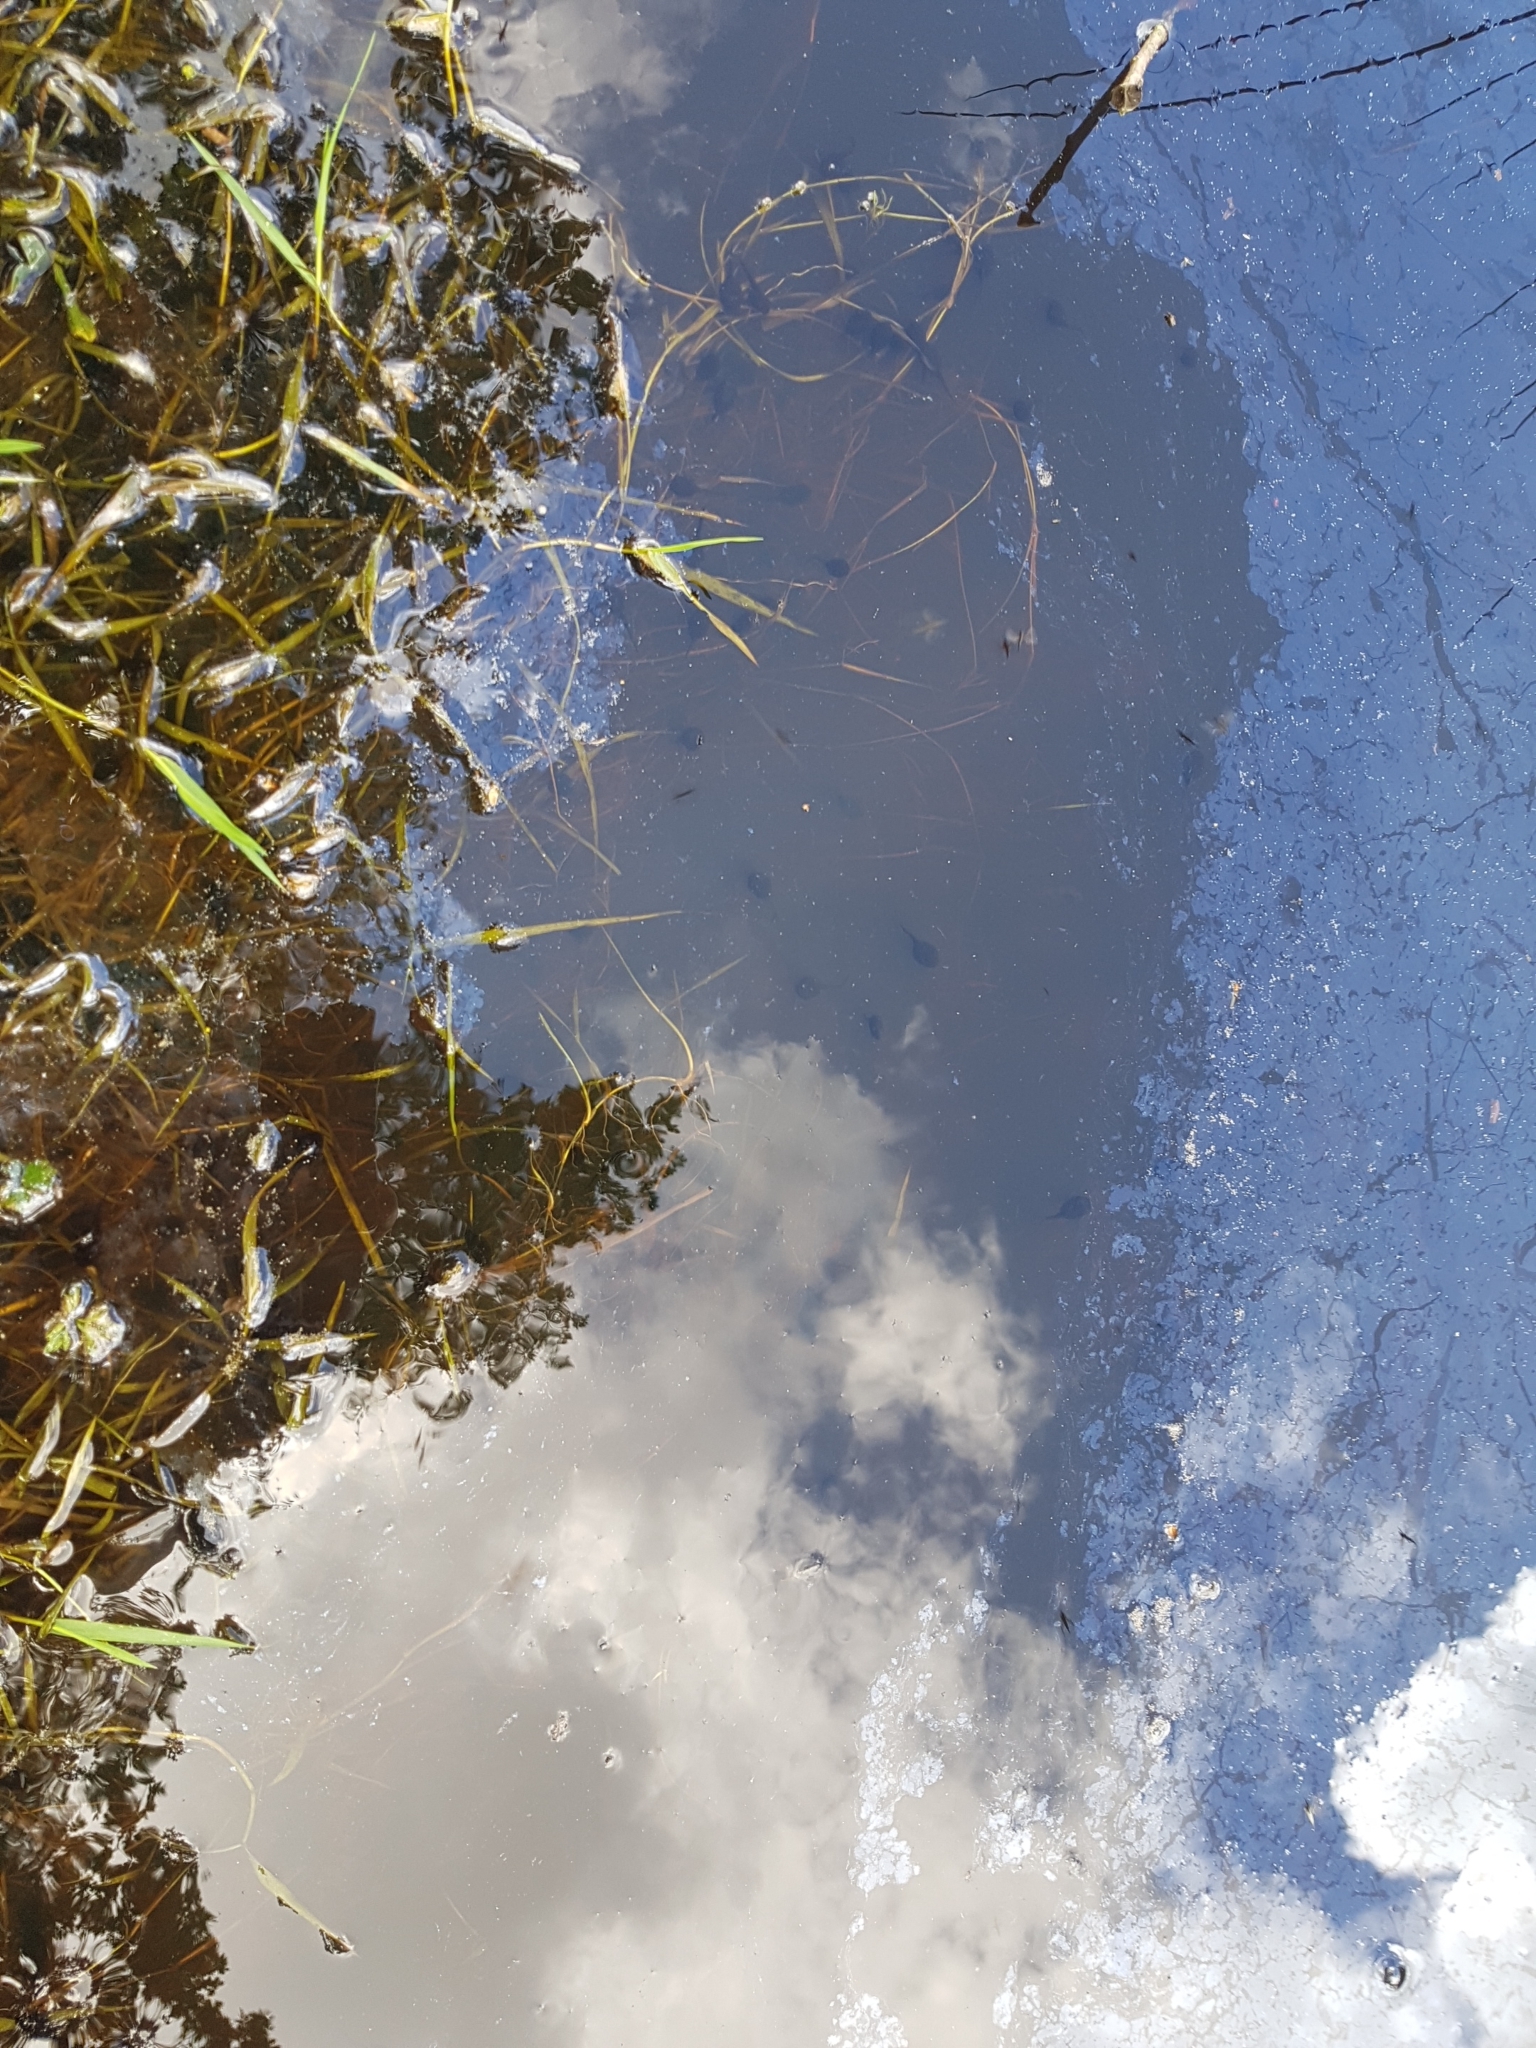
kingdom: Animalia
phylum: Chordata
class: Amphibia
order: Anura
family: Bufonidae
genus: Bufo
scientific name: Bufo bufo
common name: Common toad
